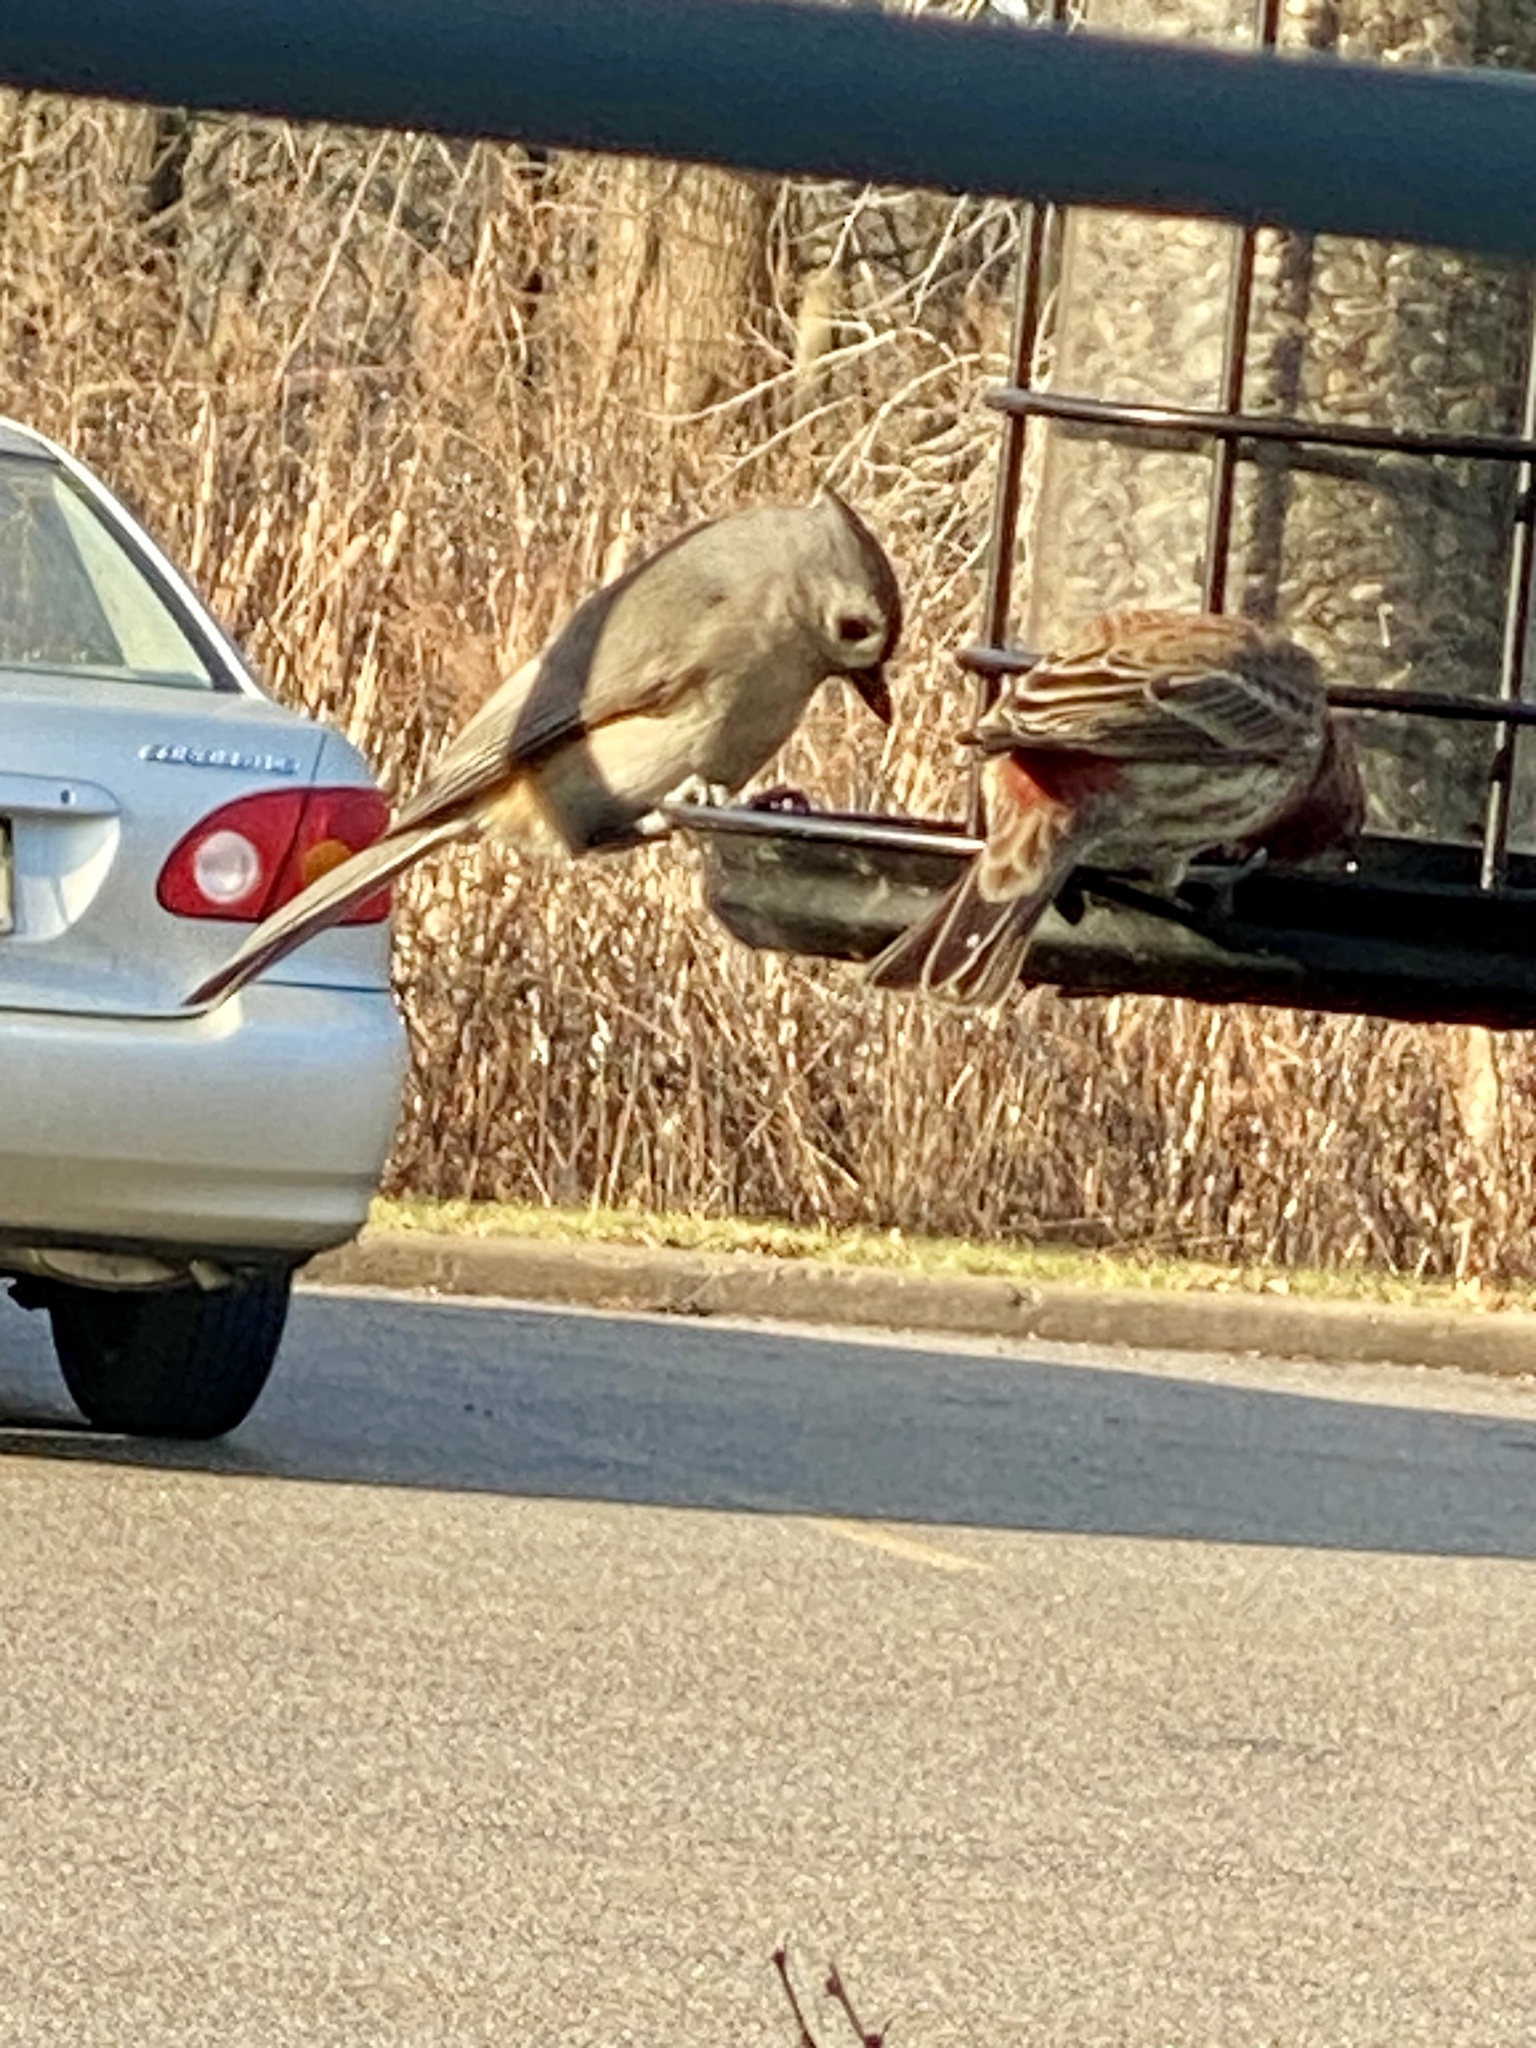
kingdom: Animalia
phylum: Chordata
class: Aves
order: Passeriformes
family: Paridae
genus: Baeolophus
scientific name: Baeolophus bicolor
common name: Tufted titmouse
